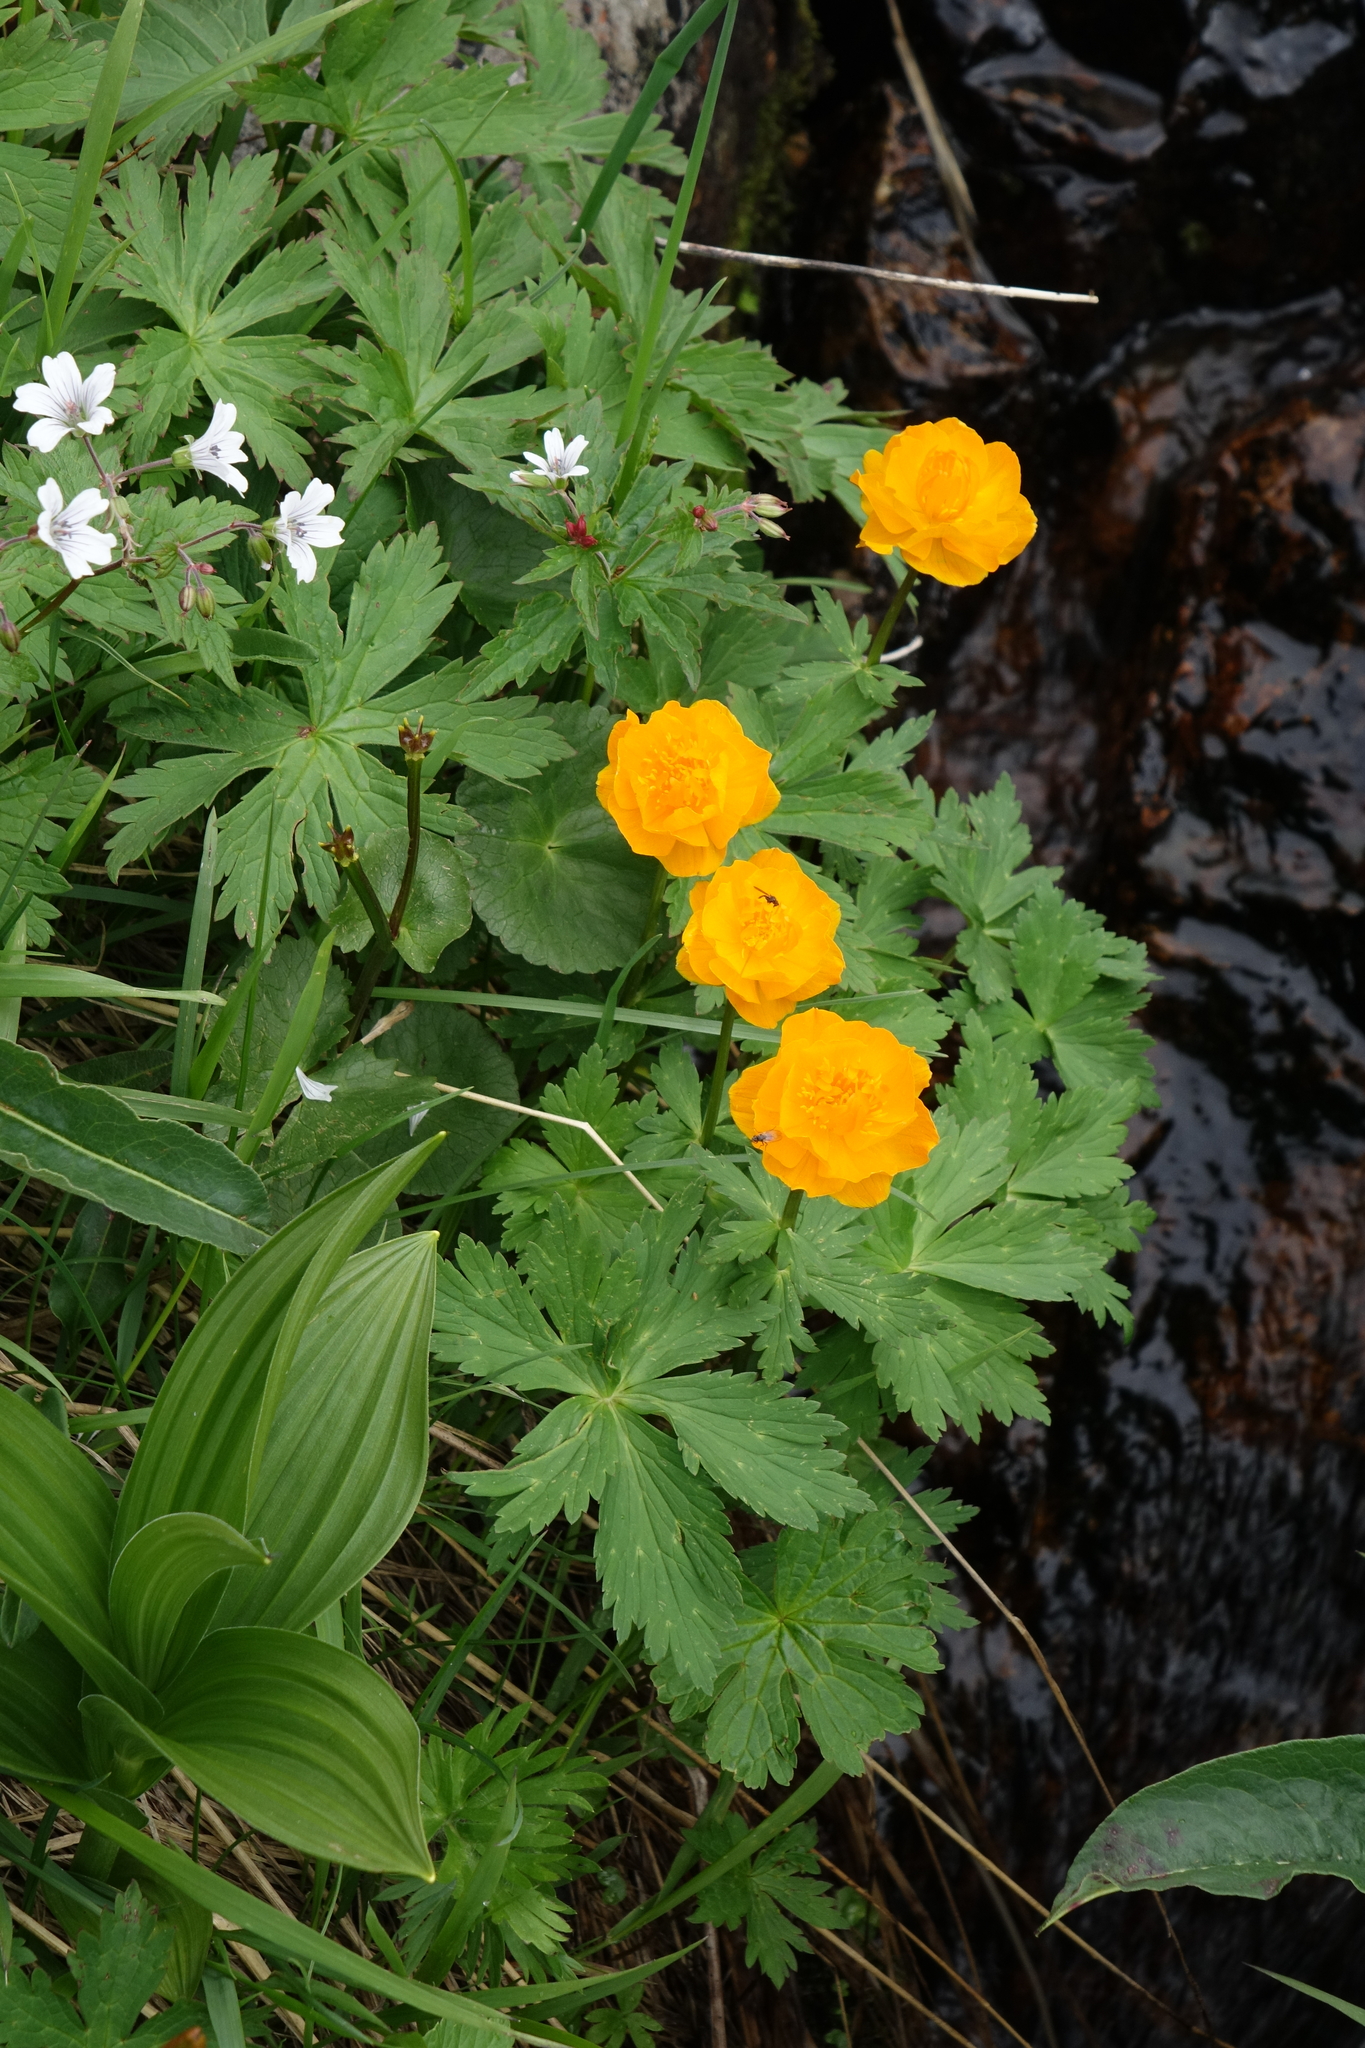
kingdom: Plantae
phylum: Tracheophyta
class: Liliopsida
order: Liliales
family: Melanthiaceae
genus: Veratrum
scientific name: Veratrum lobelianum
